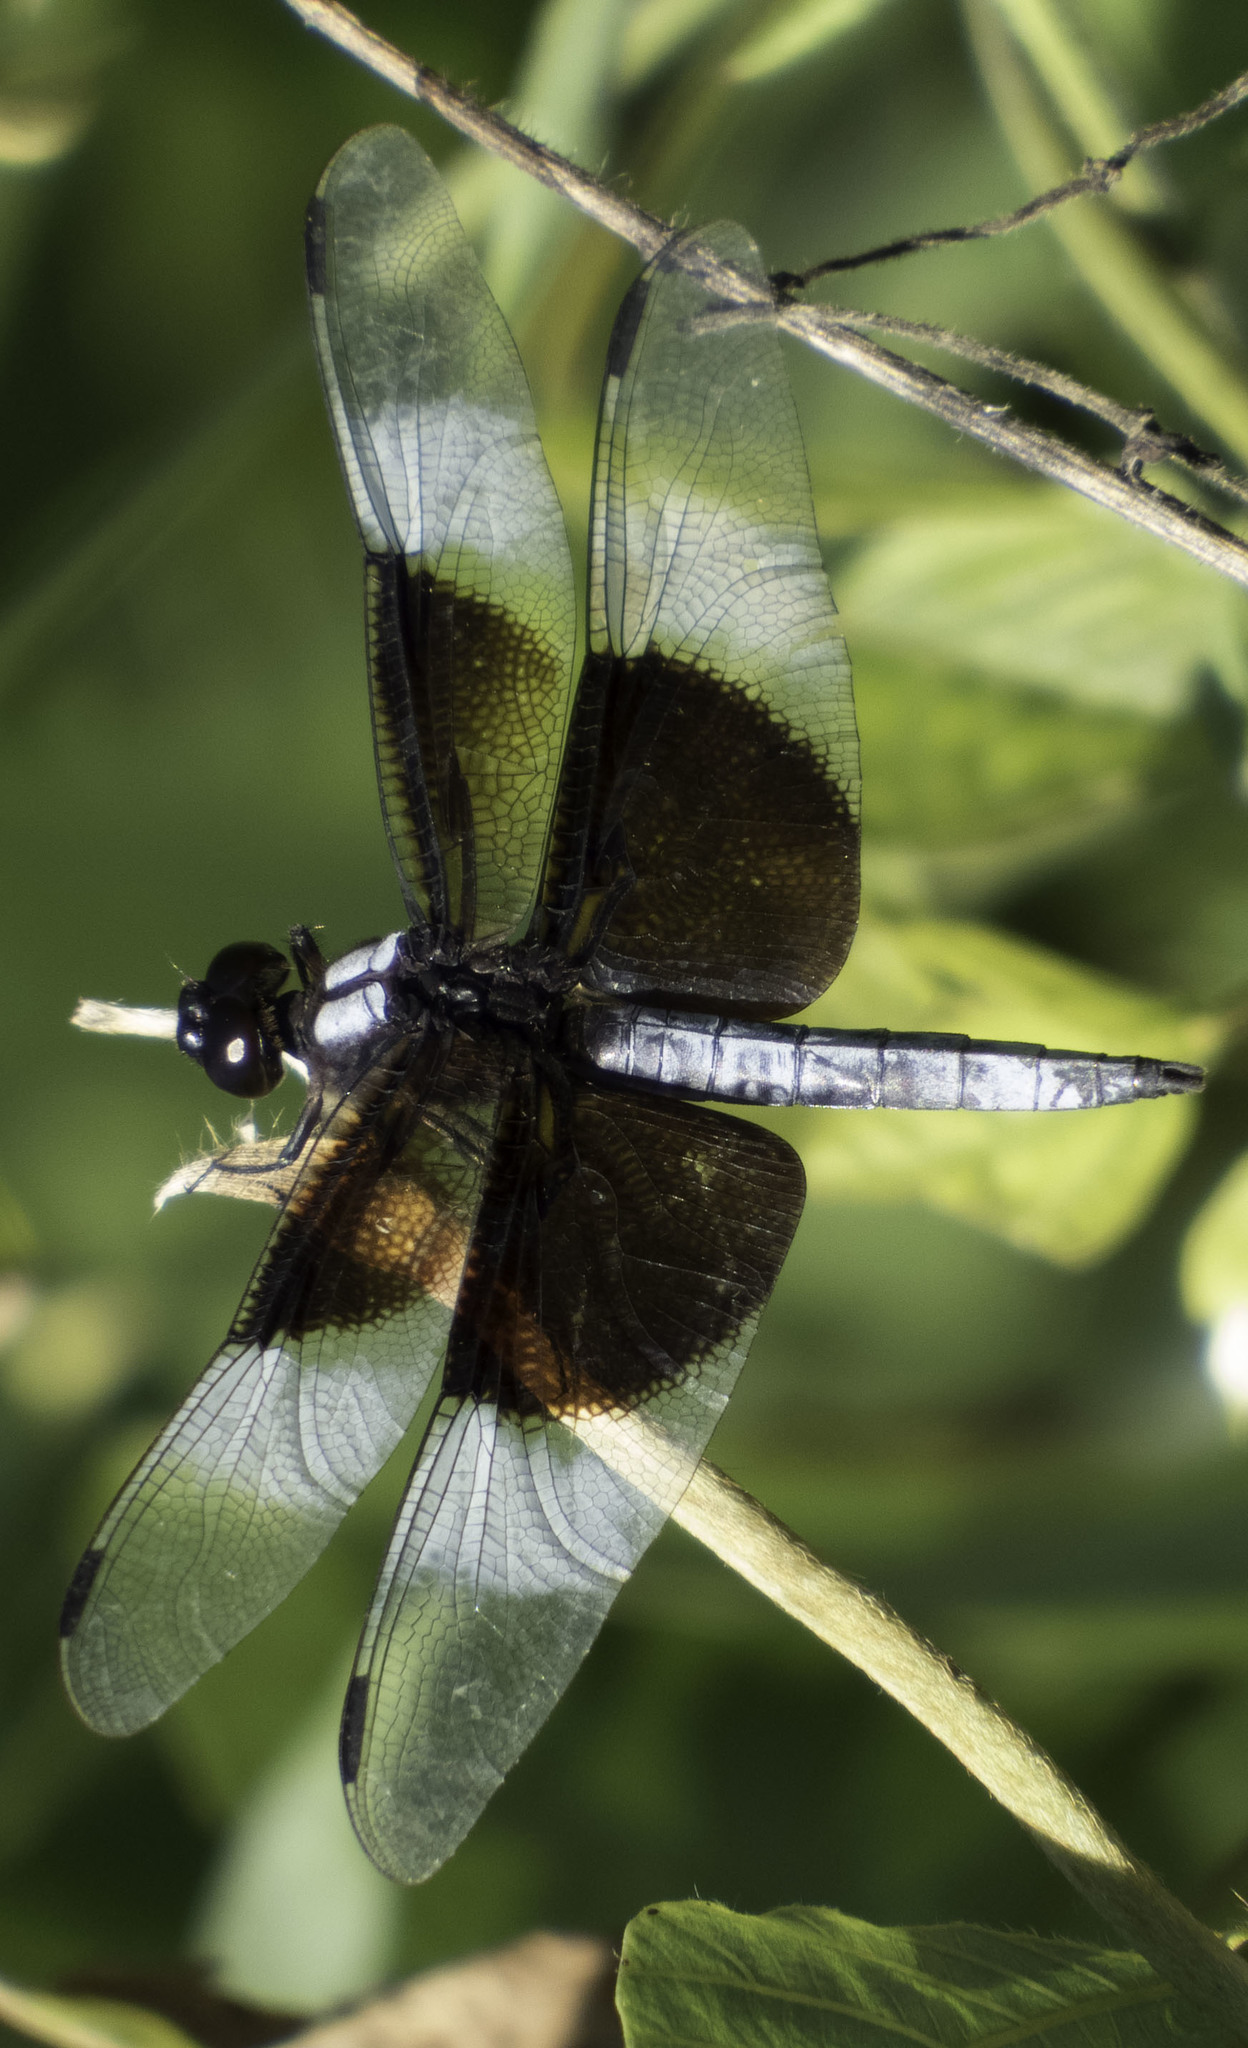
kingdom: Animalia
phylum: Arthropoda
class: Insecta
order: Odonata
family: Libellulidae
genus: Libellula
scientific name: Libellula luctuosa
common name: Widow skimmer
